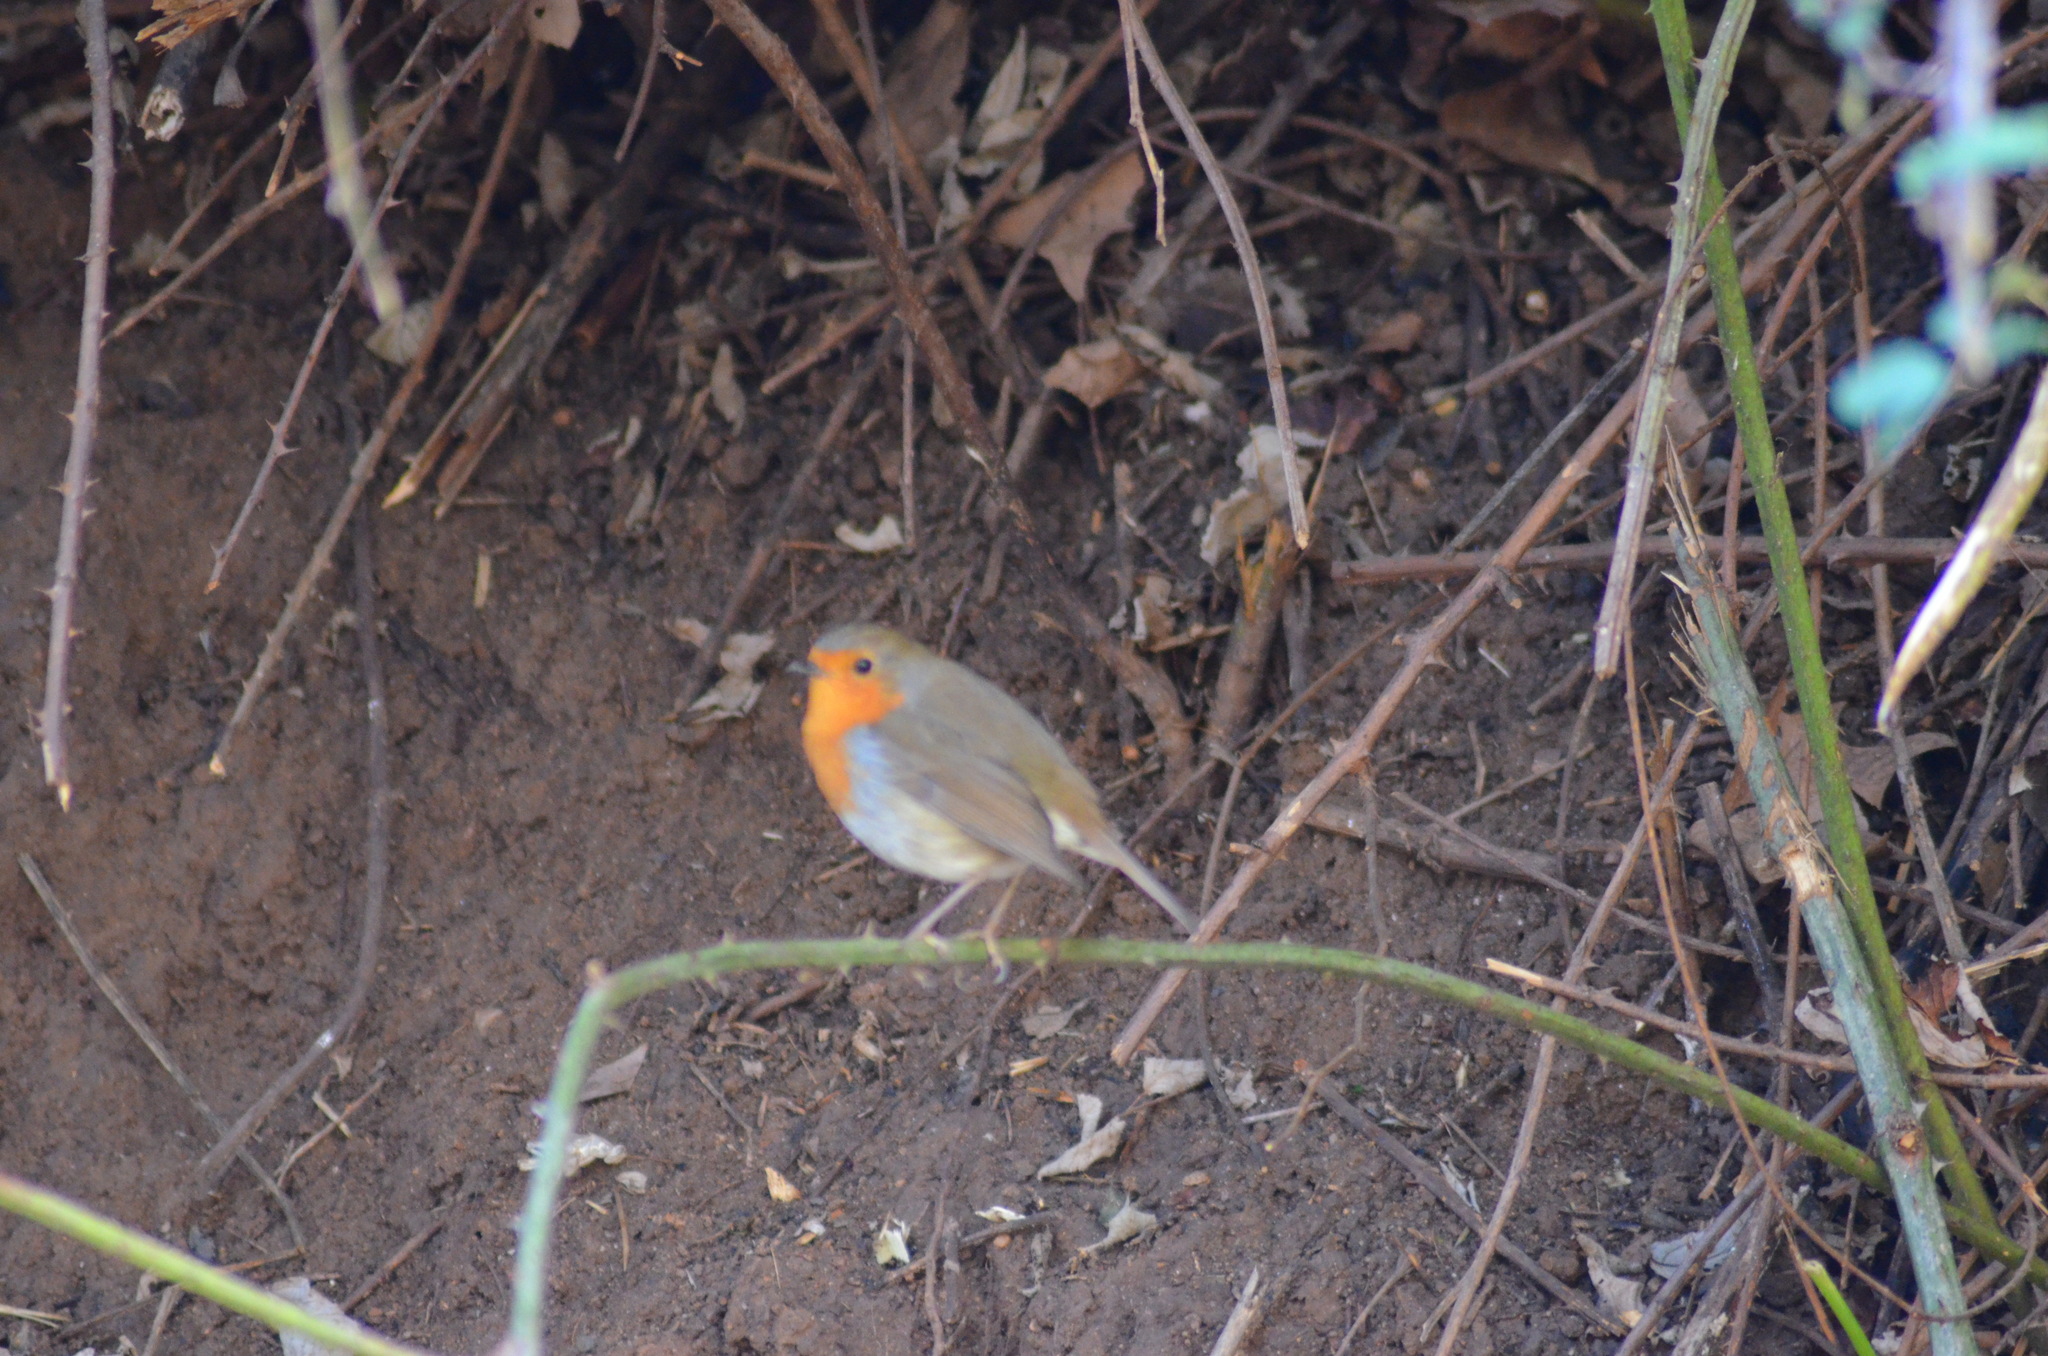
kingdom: Animalia
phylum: Chordata
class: Aves
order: Passeriformes
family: Muscicapidae
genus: Erithacus
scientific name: Erithacus rubecula
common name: European robin
